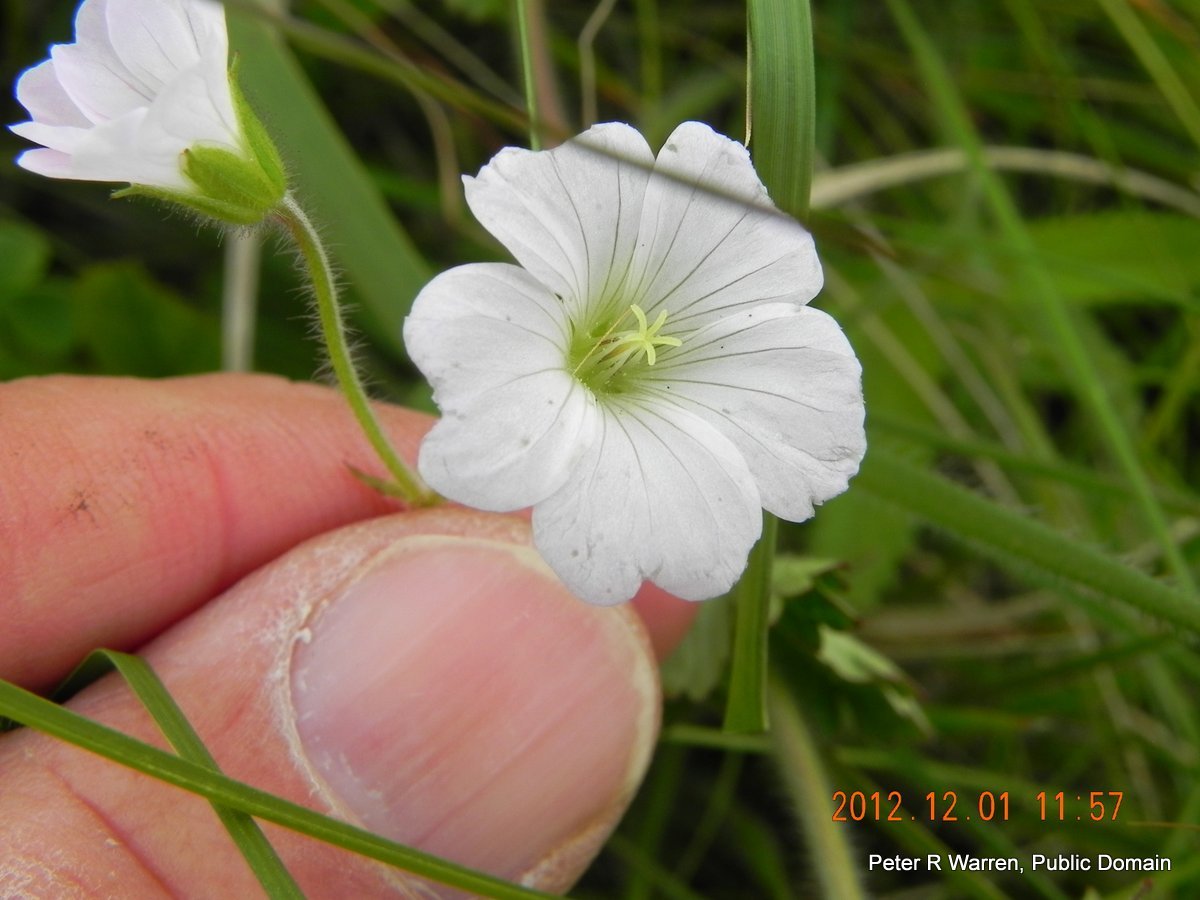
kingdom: Plantae
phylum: Tracheophyta
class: Magnoliopsida
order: Geraniales
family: Geraniaceae
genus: Geranium
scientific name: Geranium wakkerstroomianum
